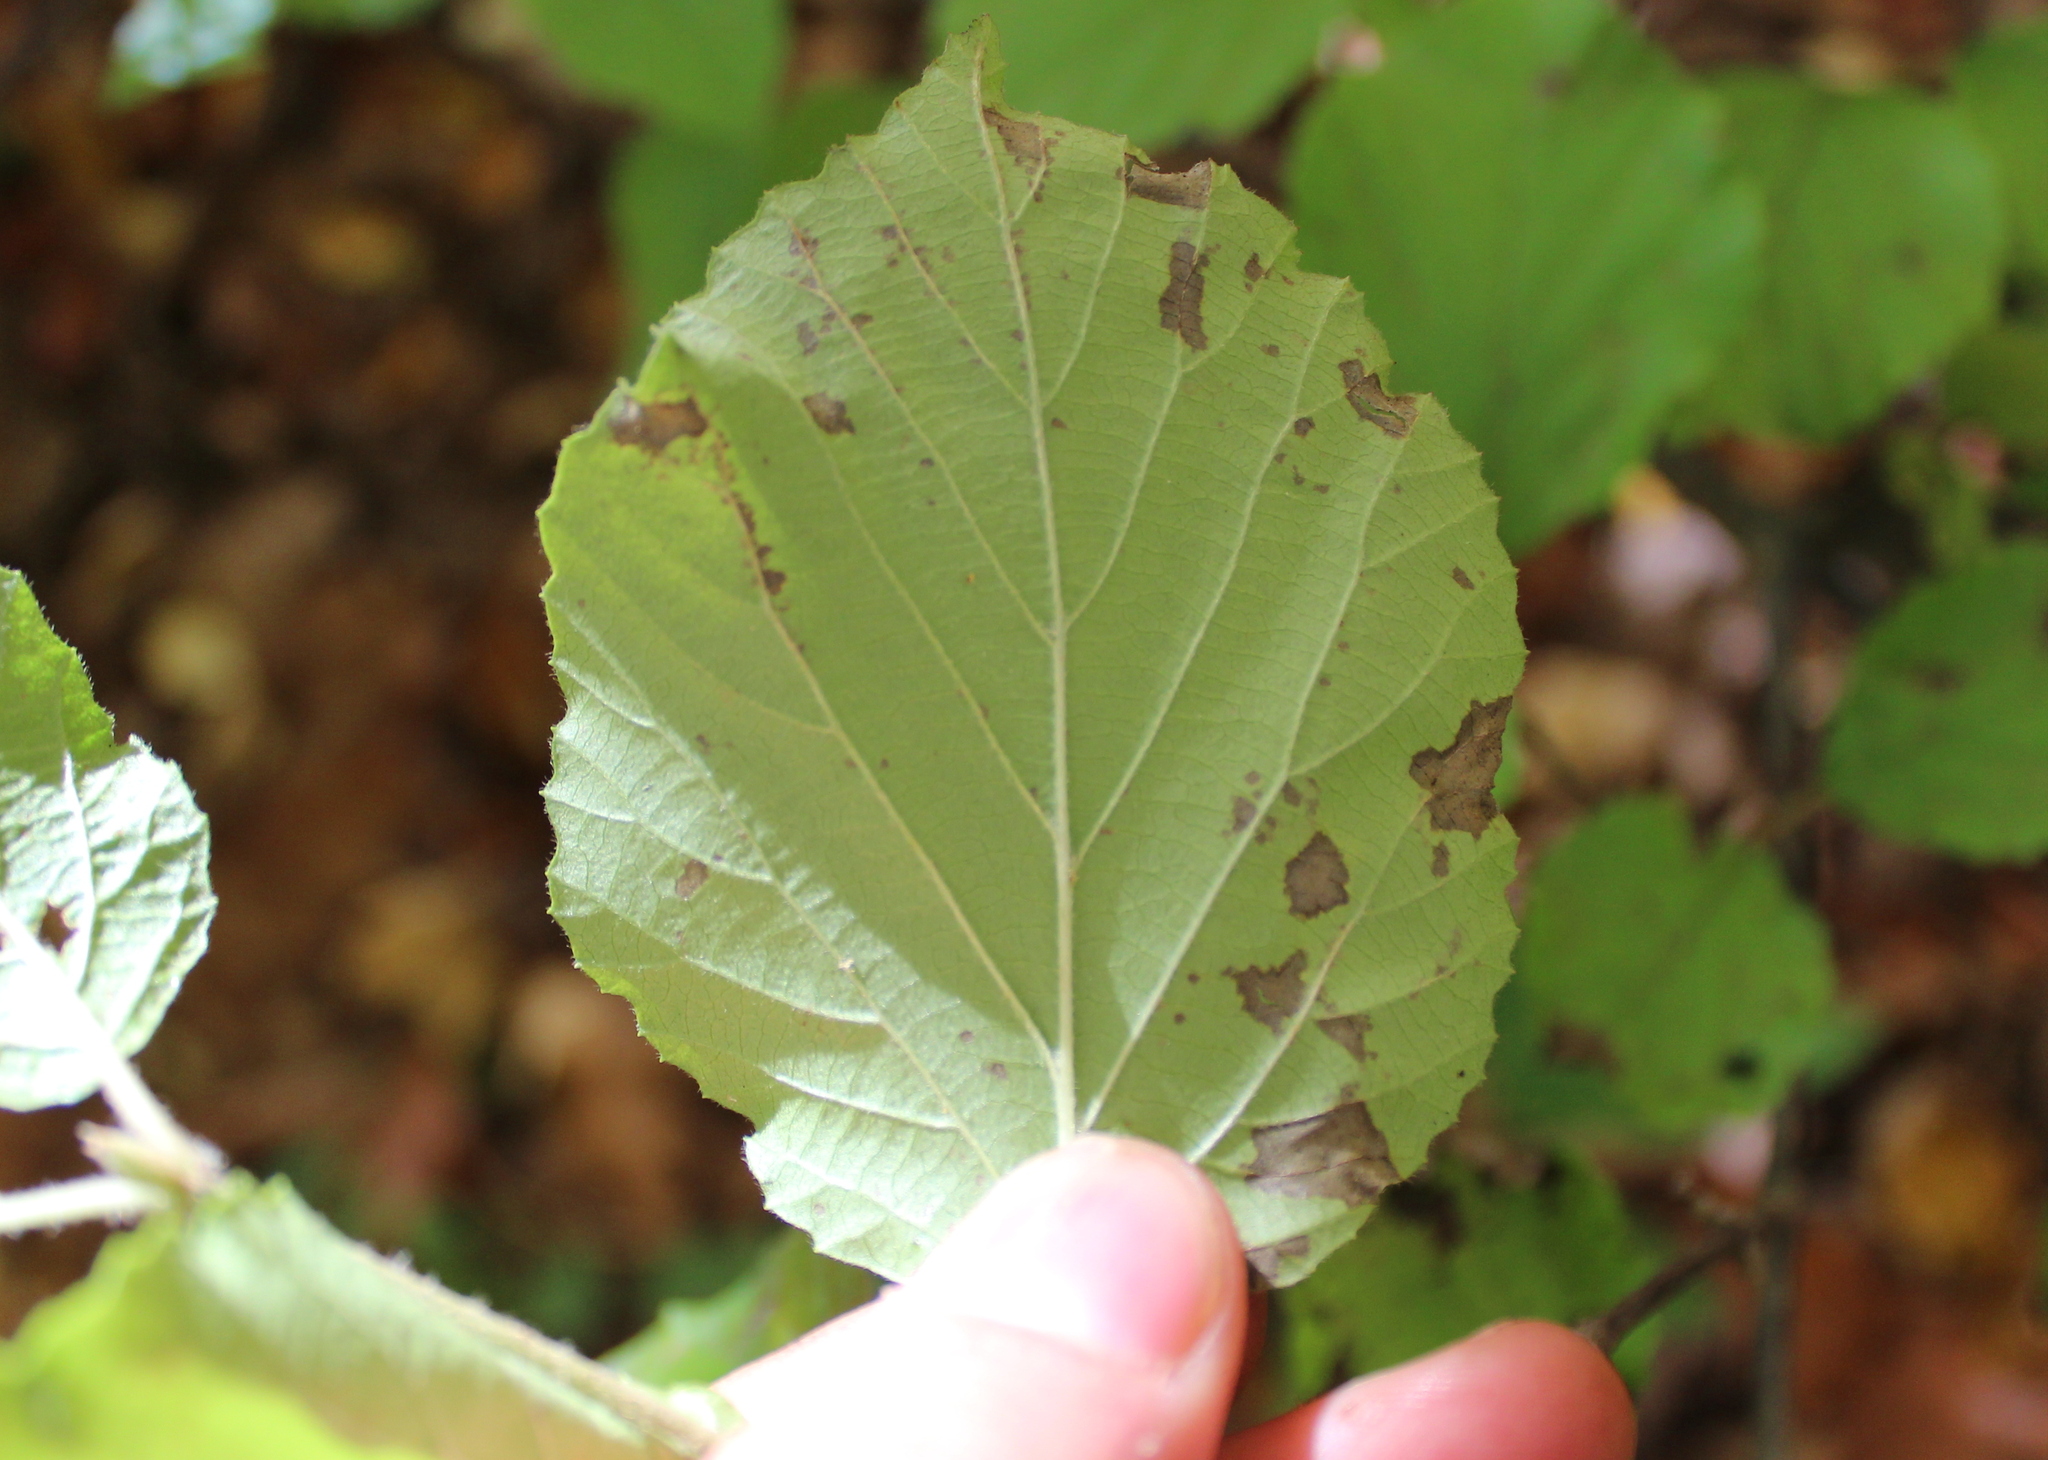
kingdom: Plantae
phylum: Tracheophyta
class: Magnoliopsida
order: Dipsacales
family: Viburnaceae
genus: Viburnum
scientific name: Viburnum dilatatum
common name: Linden arrowwood
